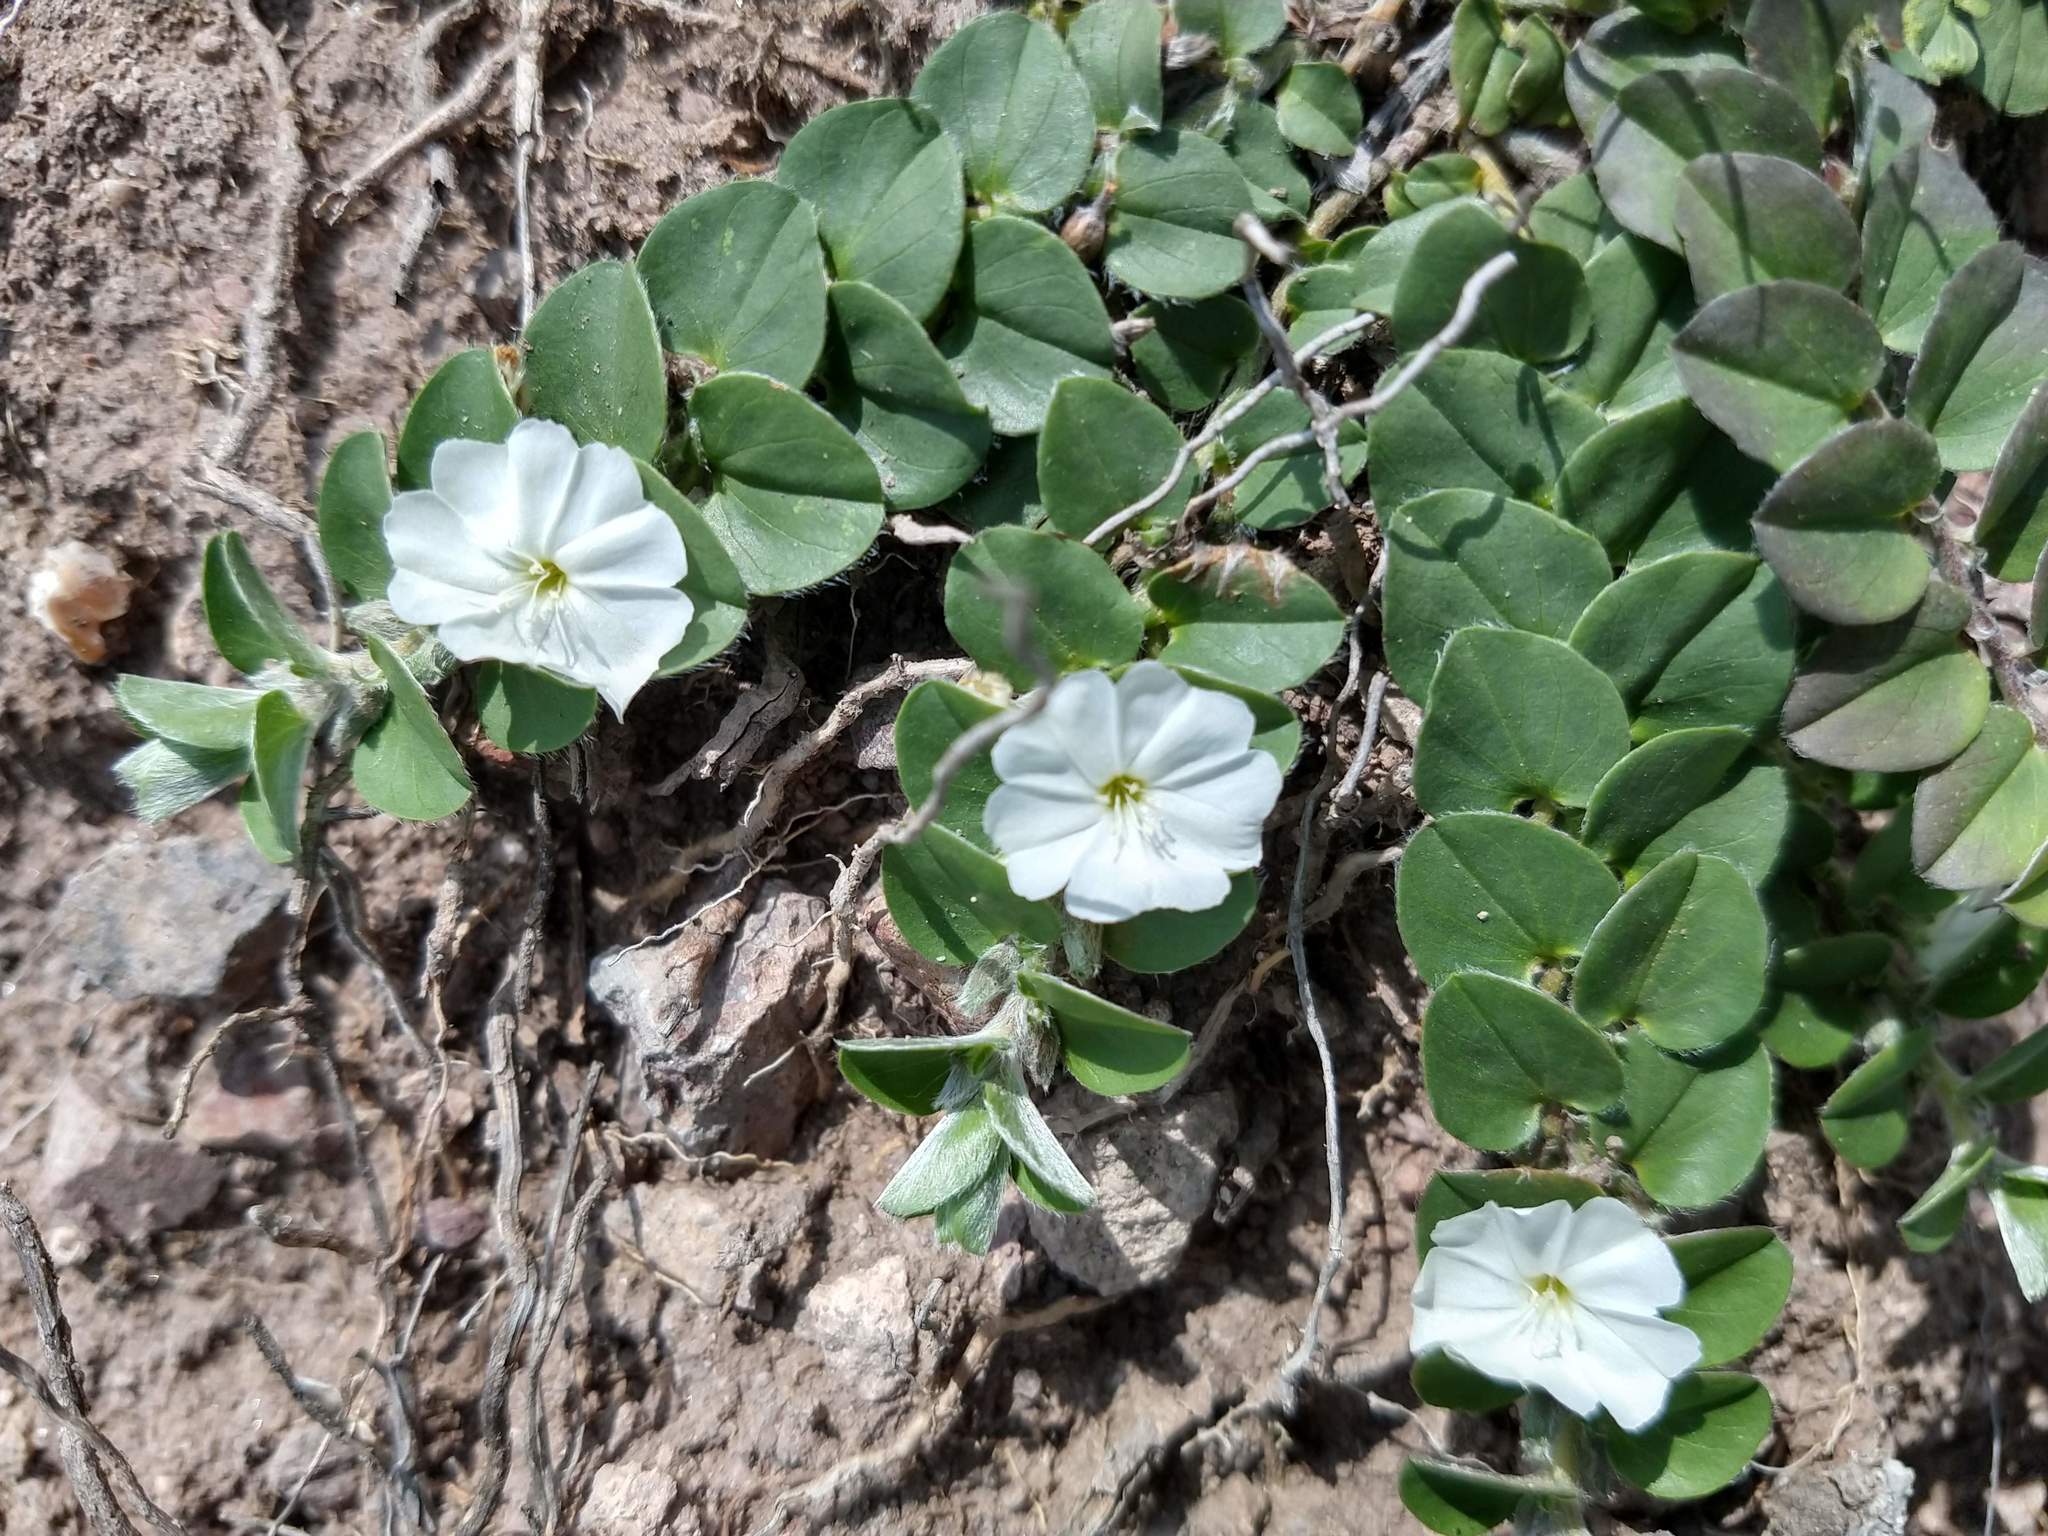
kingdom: Plantae
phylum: Tracheophyta
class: Magnoliopsida
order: Solanales
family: Convolvulaceae
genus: Evolvulus
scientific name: Evolvulus prostratus
